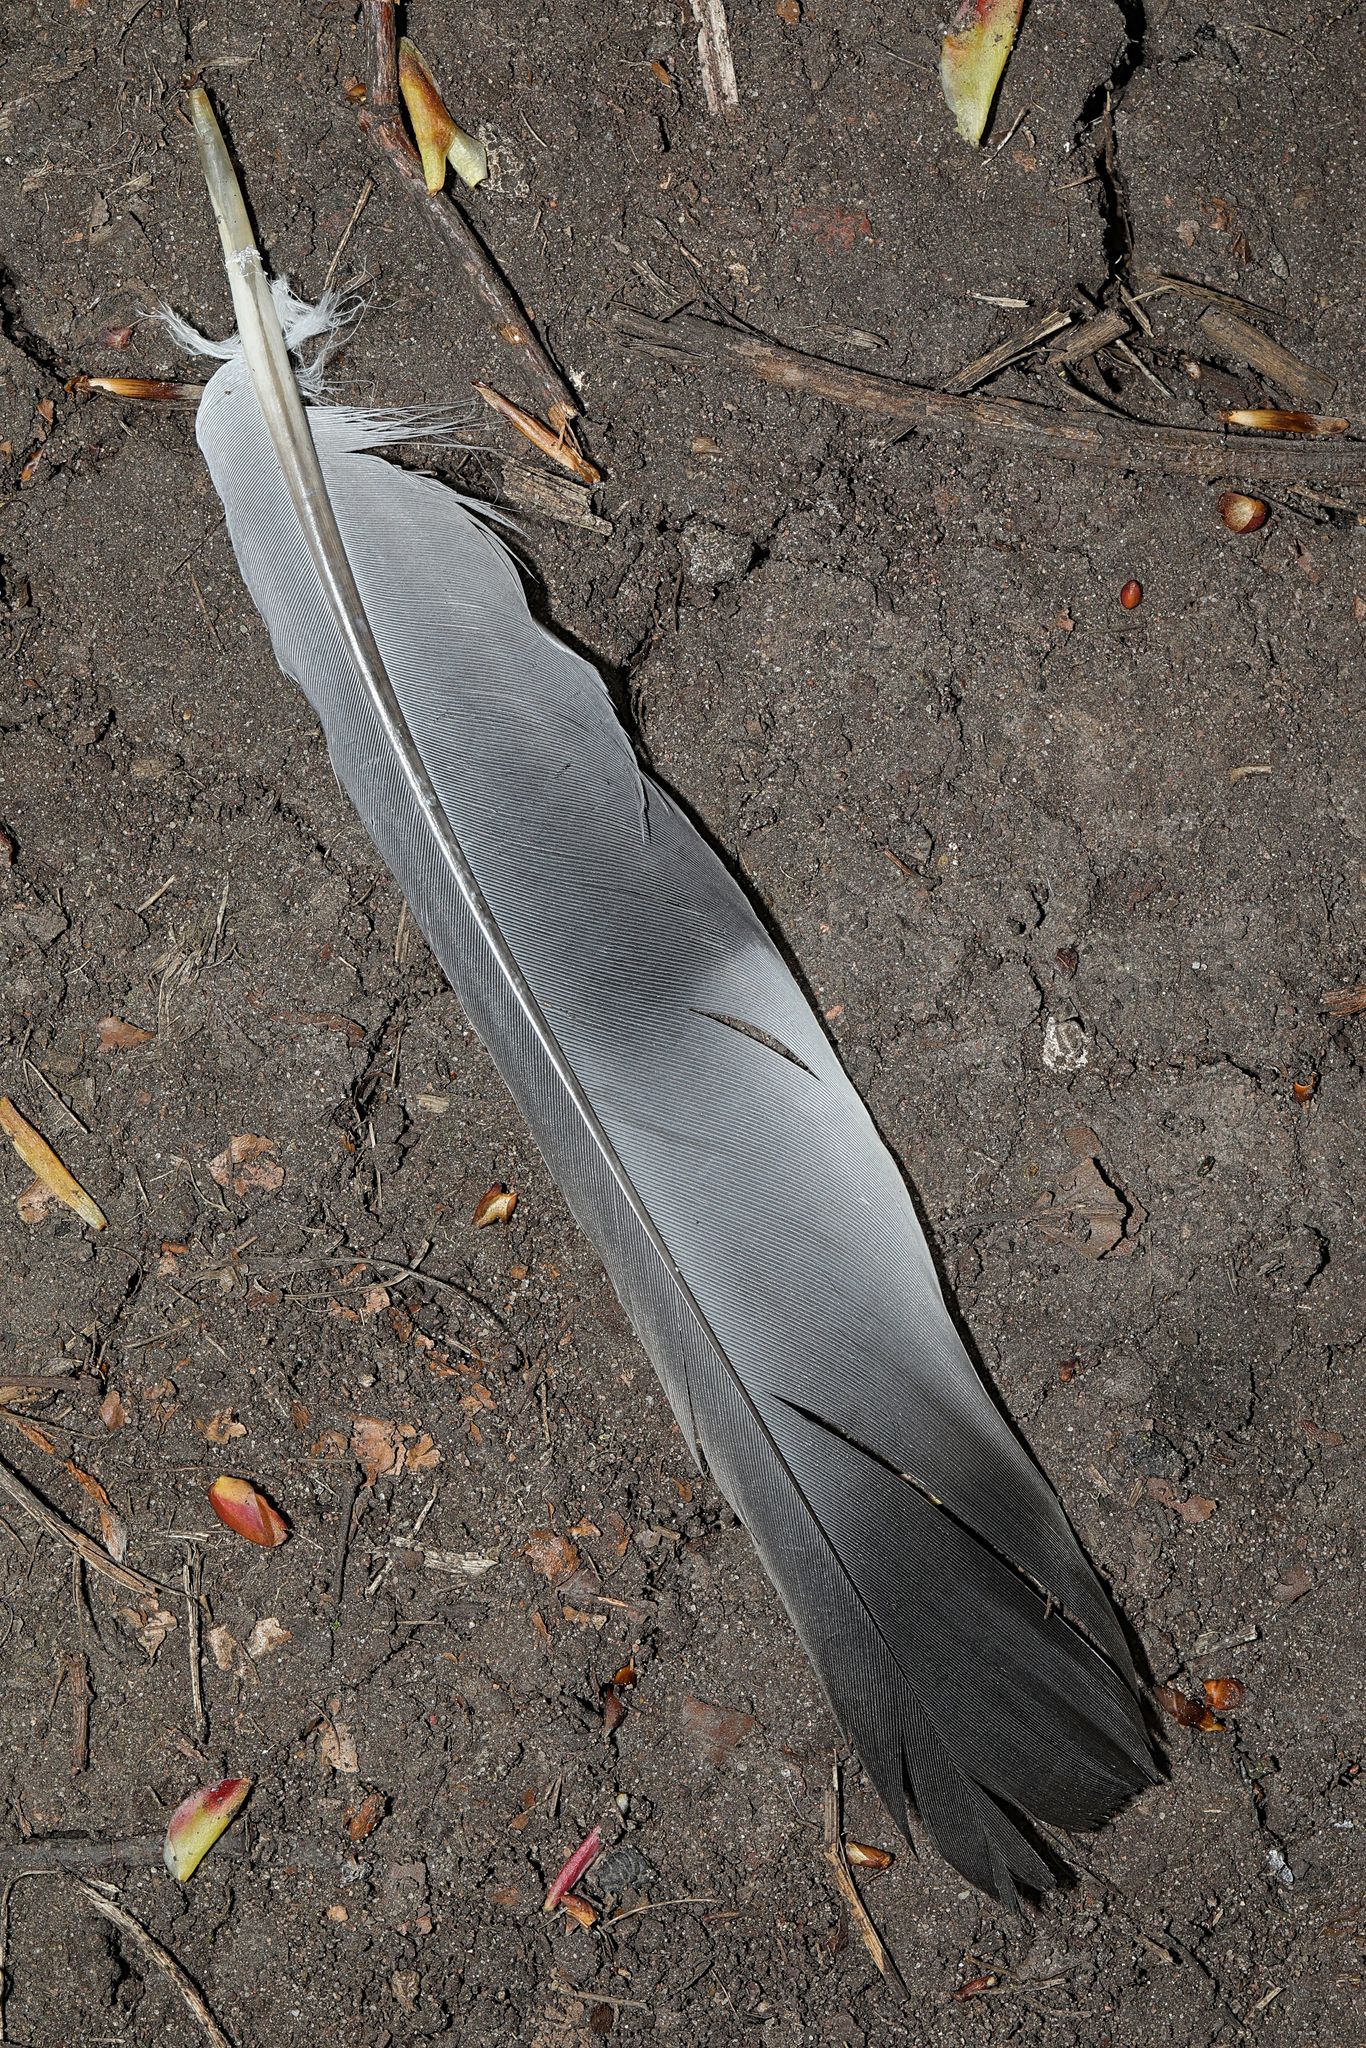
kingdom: Animalia
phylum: Chordata
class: Aves
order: Columbiformes
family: Columbidae
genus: Columba
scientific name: Columba palumbus
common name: Common wood pigeon
